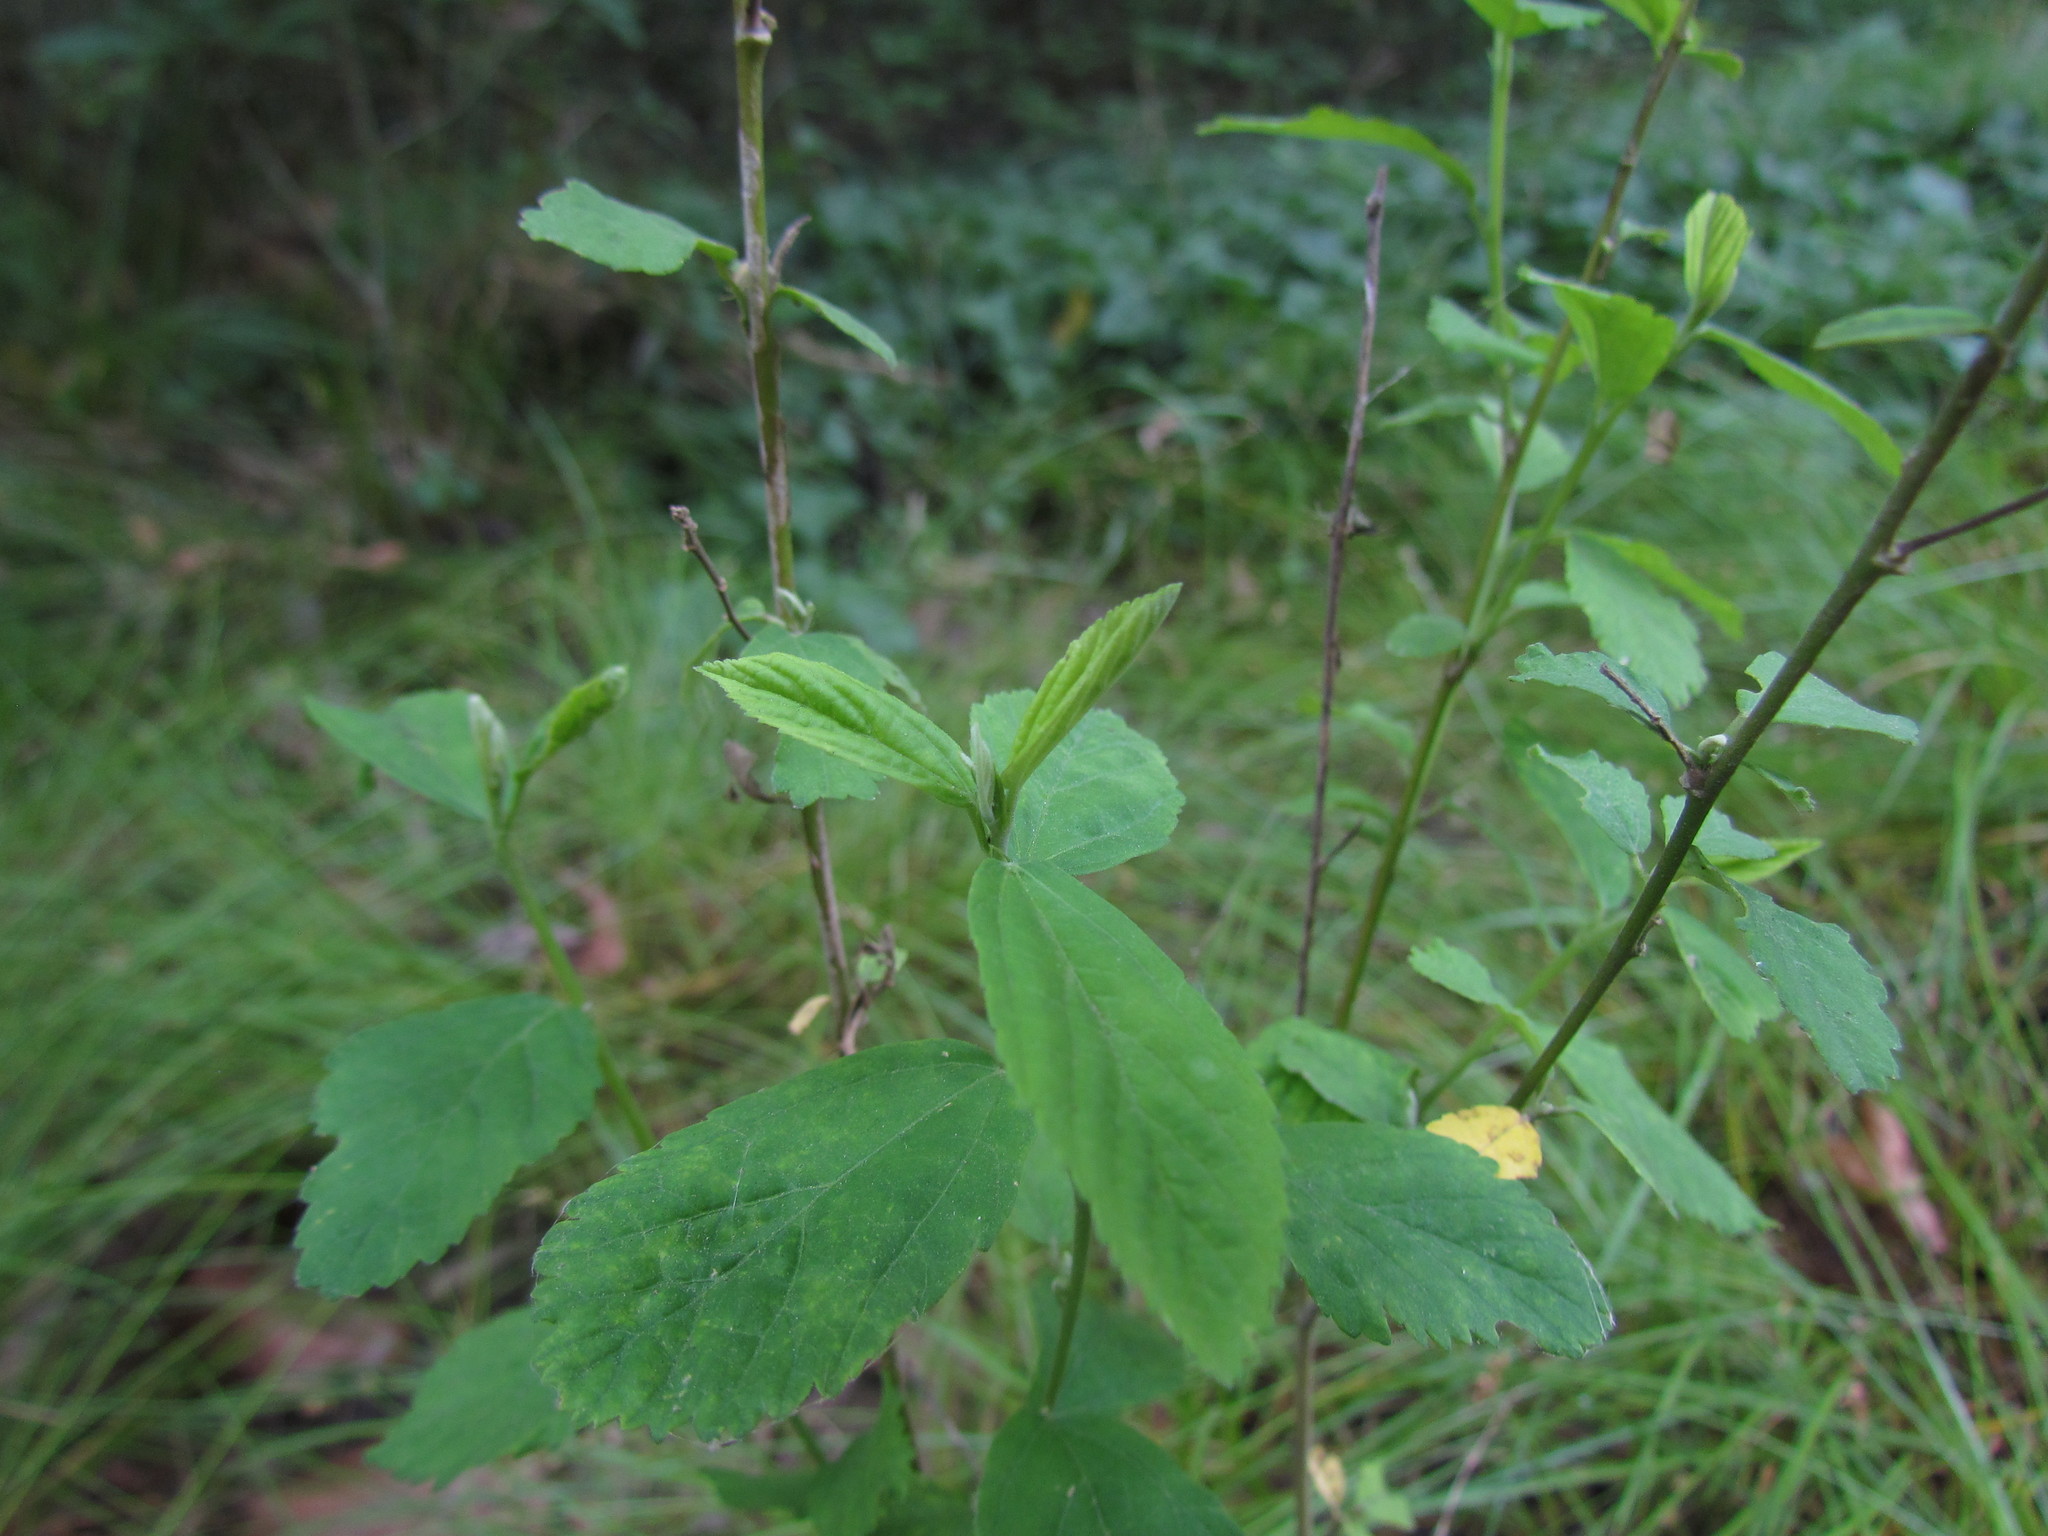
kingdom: Plantae
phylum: Tracheophyta
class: Magnoliopsida
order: Malvales
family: Malvaceae
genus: Sida
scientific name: Sida rhombifolia
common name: Queensland-hemp
